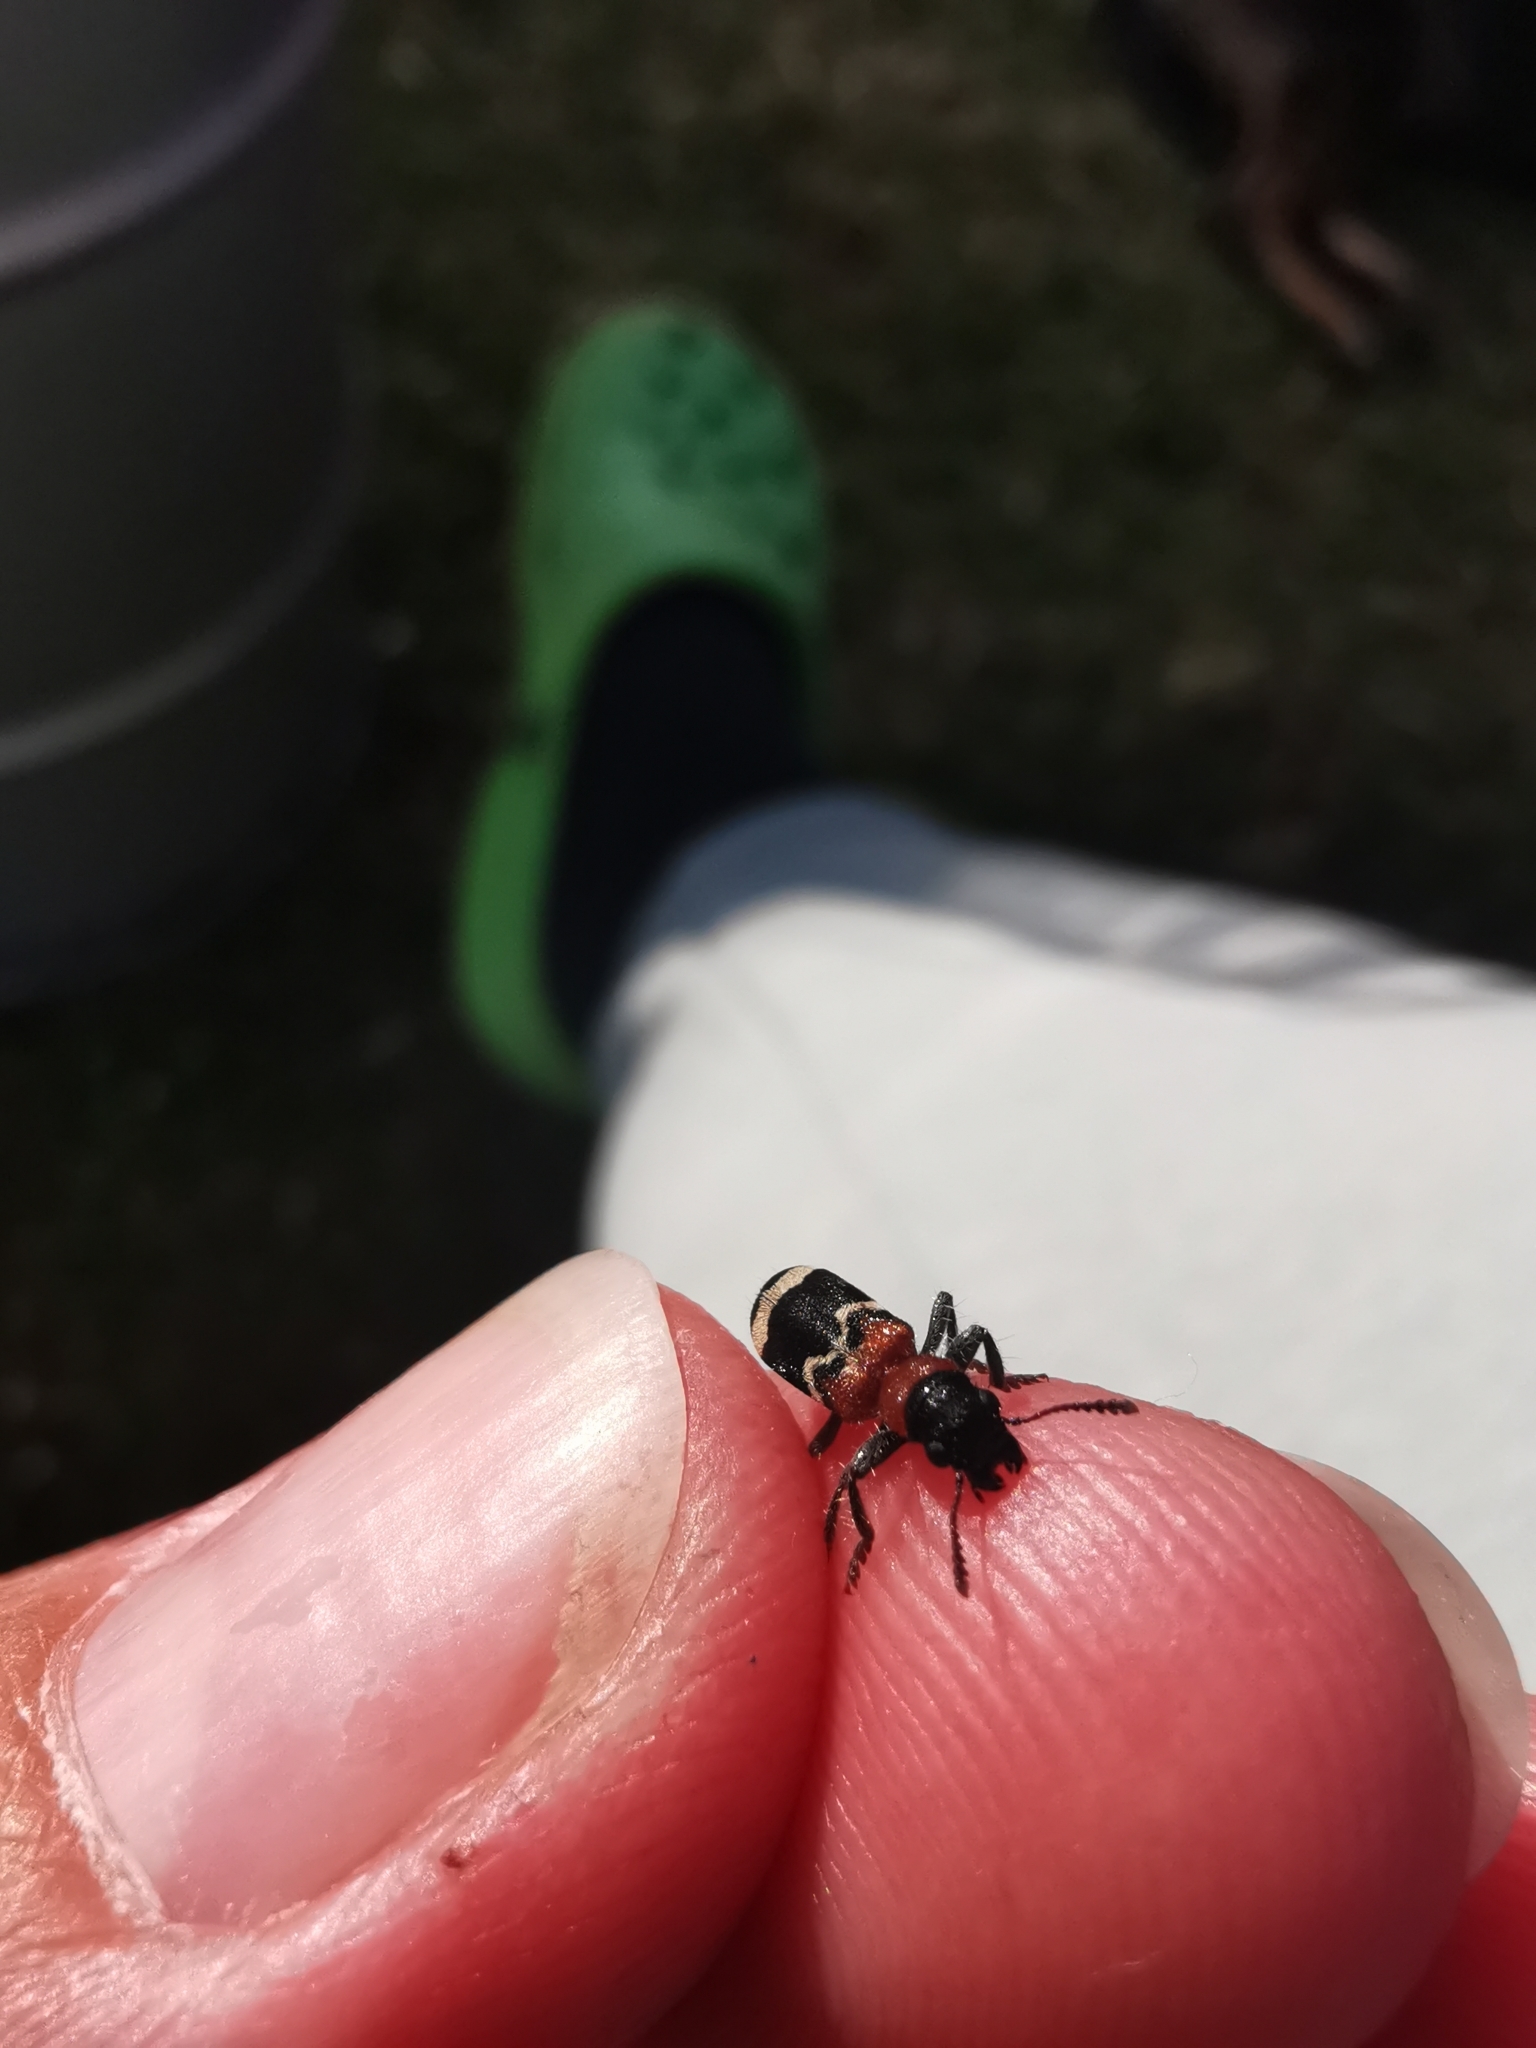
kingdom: Animalia
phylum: Arthropoda
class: Insecta
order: Coleoptera
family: Cleridae
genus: Thanasimus
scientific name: Thanasimus formicarius
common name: Ant beetle
